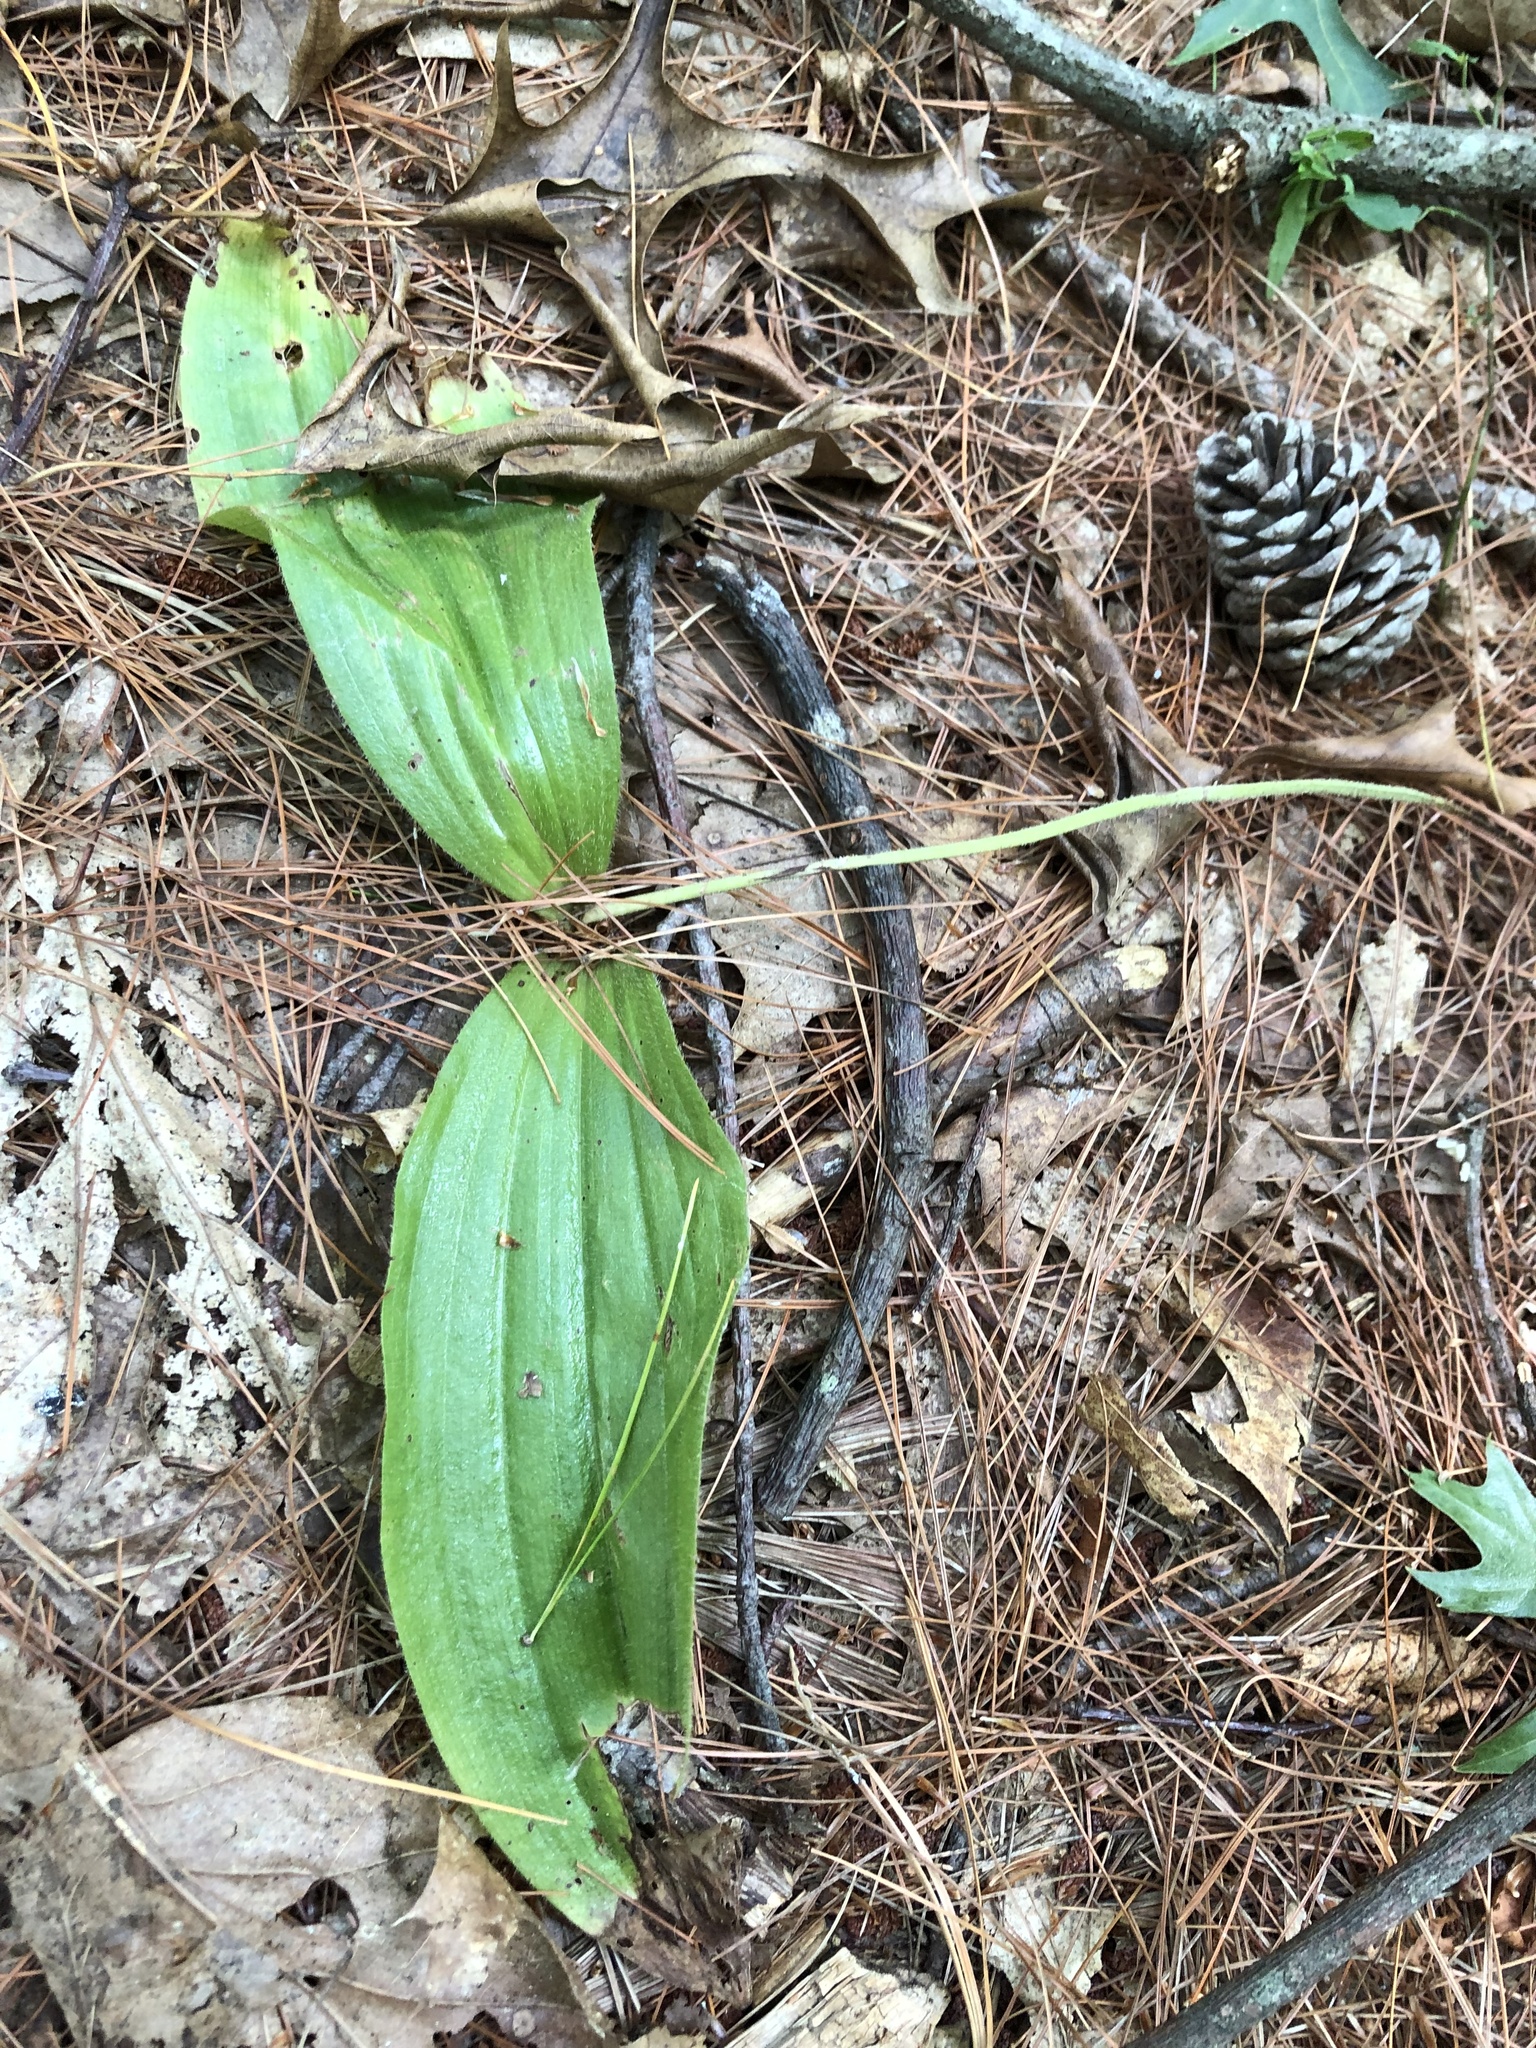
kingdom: Plantae
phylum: Tracheophyta
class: Liliopsida
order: Asparagales
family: Orchidaceae
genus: Cypripedium
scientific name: Cypripedium acaule
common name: Pink lady's-slipper
